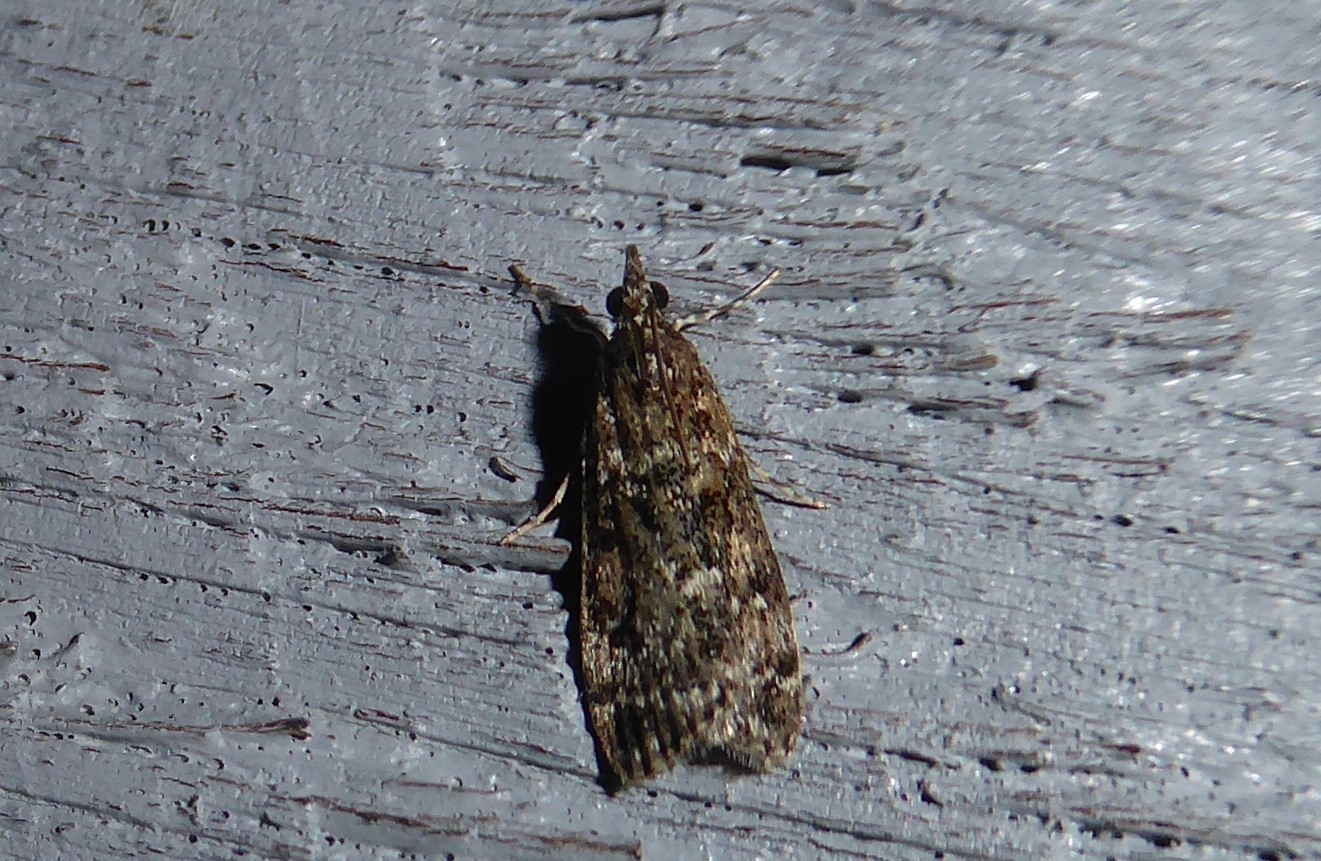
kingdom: Animalia
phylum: Arthropoda
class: Insecta
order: Lepidoptera
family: Crambidae
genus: Eudonia
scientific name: Eudonia philerga
